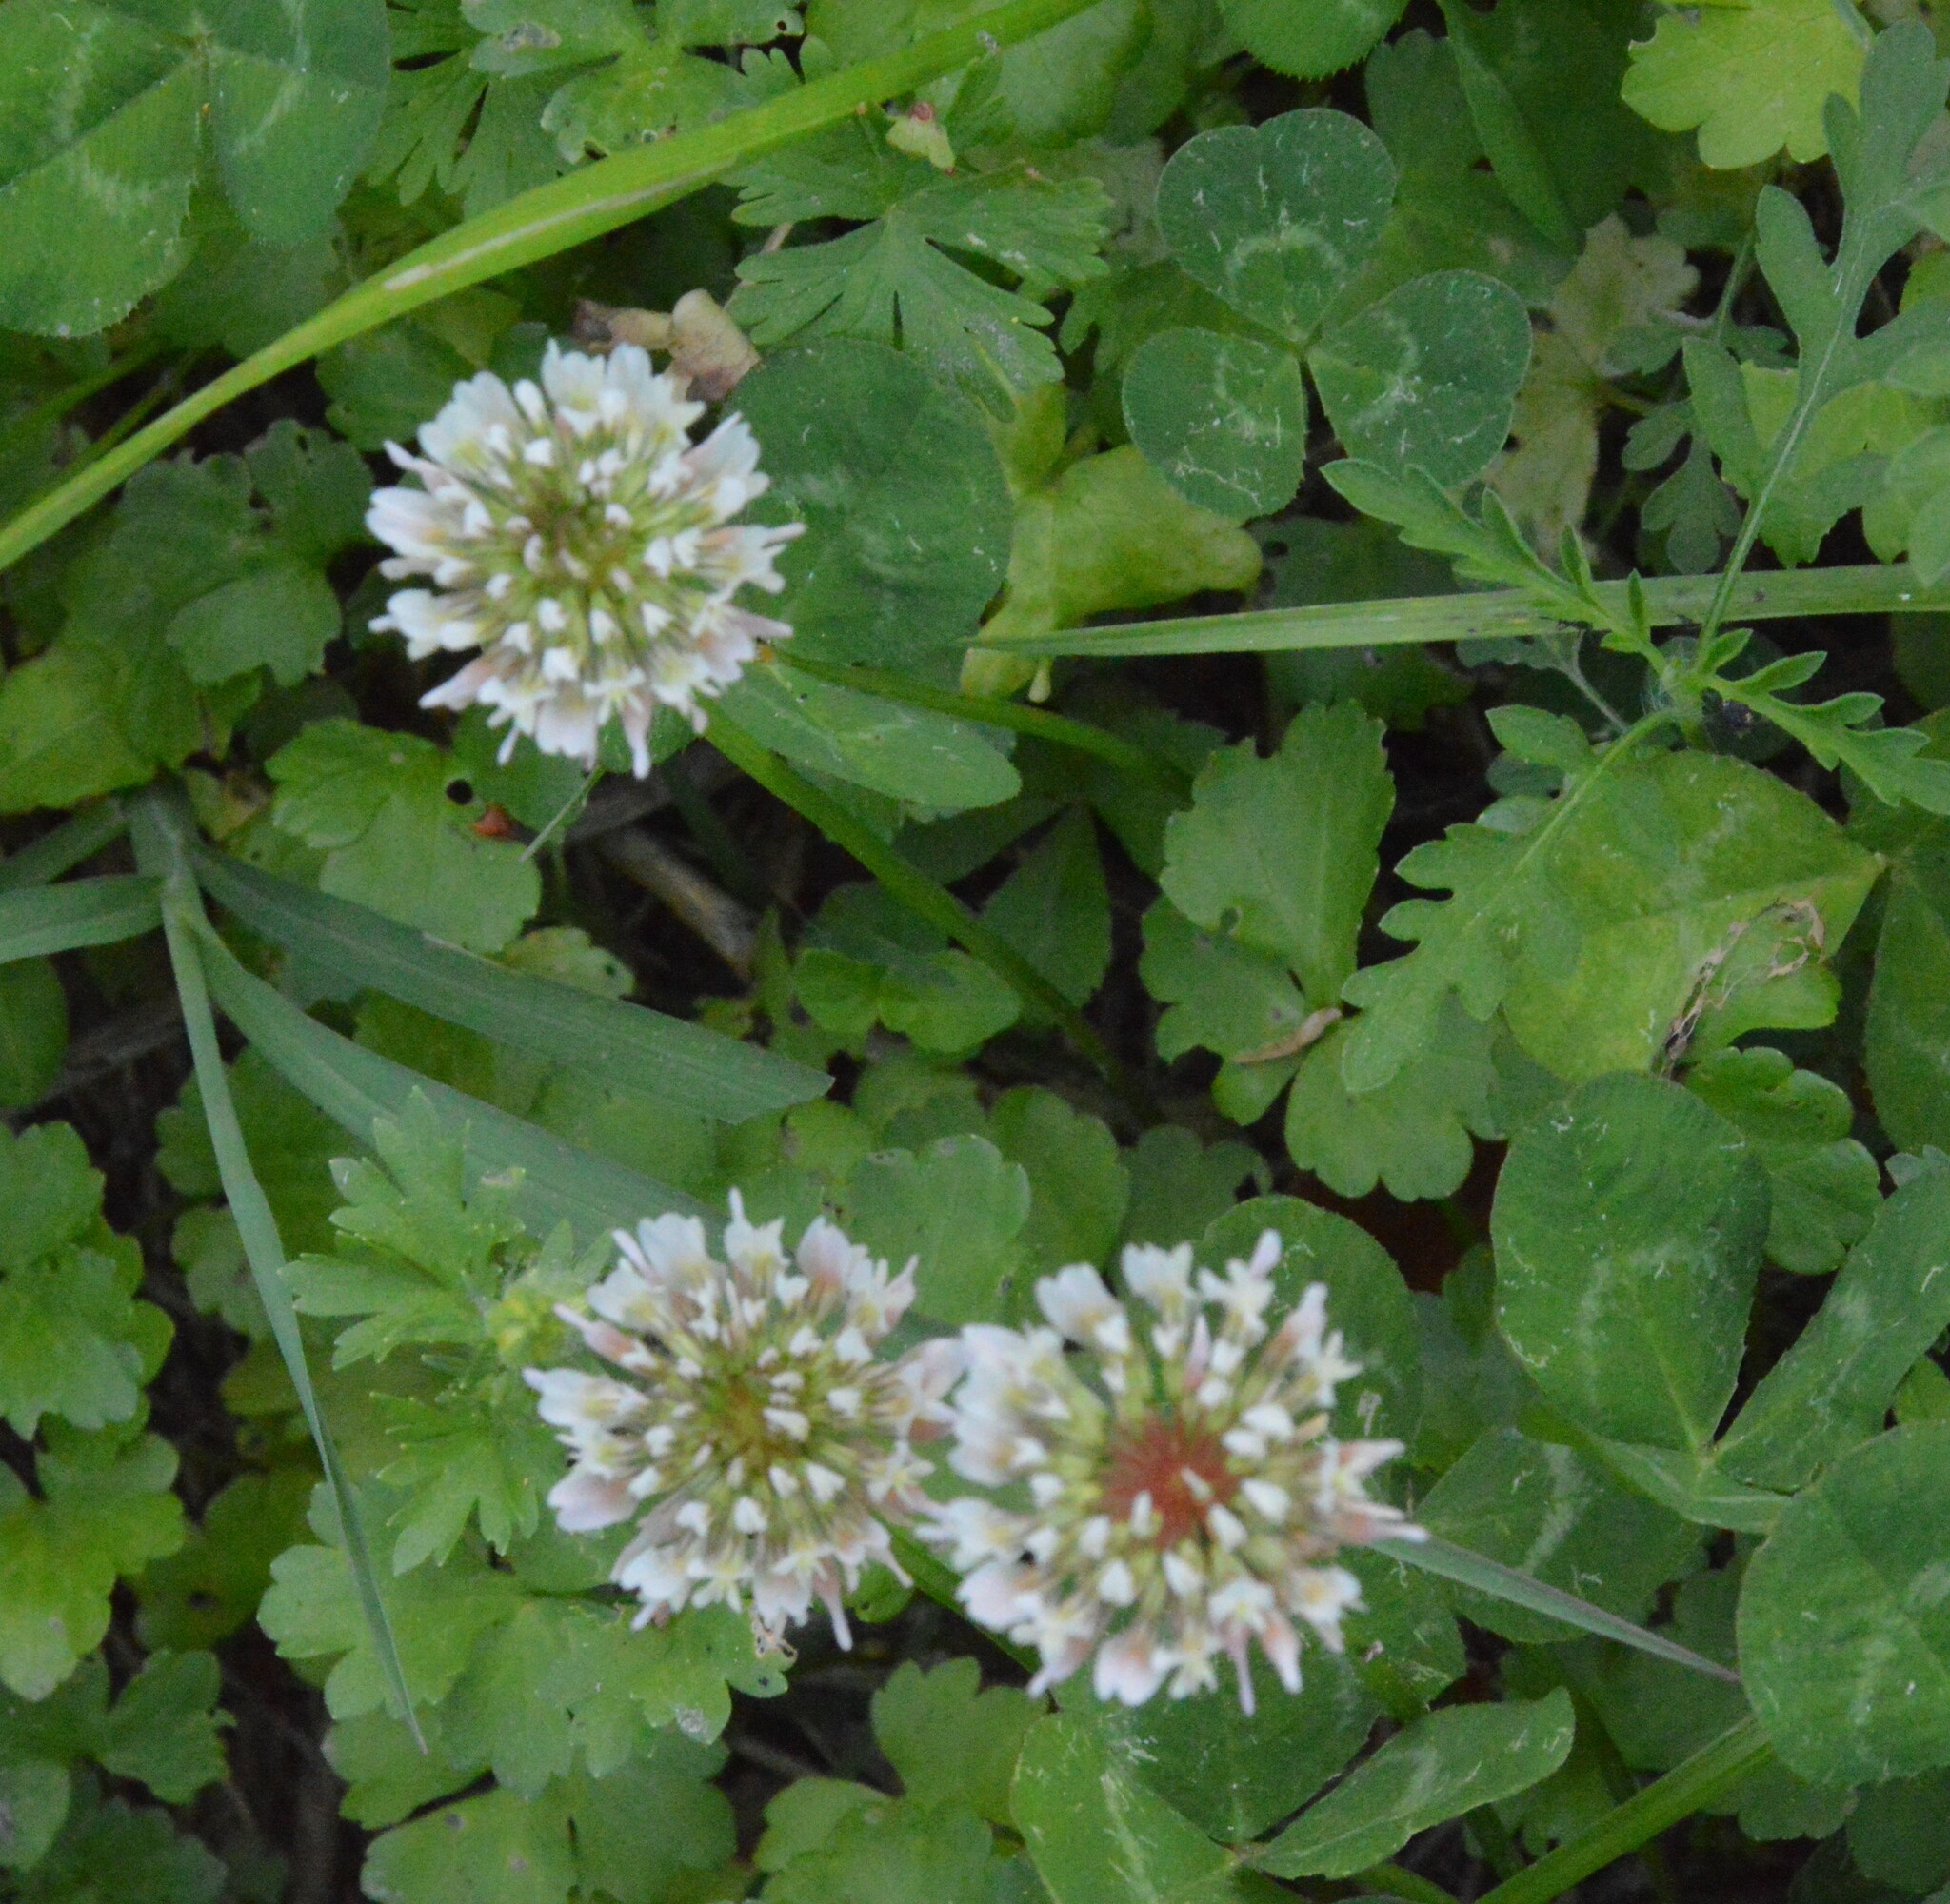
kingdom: Plantae
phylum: Tracheophyta
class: Magnoliopsida
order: Fabales
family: Fabaceae
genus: Trifolium
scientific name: Trifolium repens
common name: White clover
